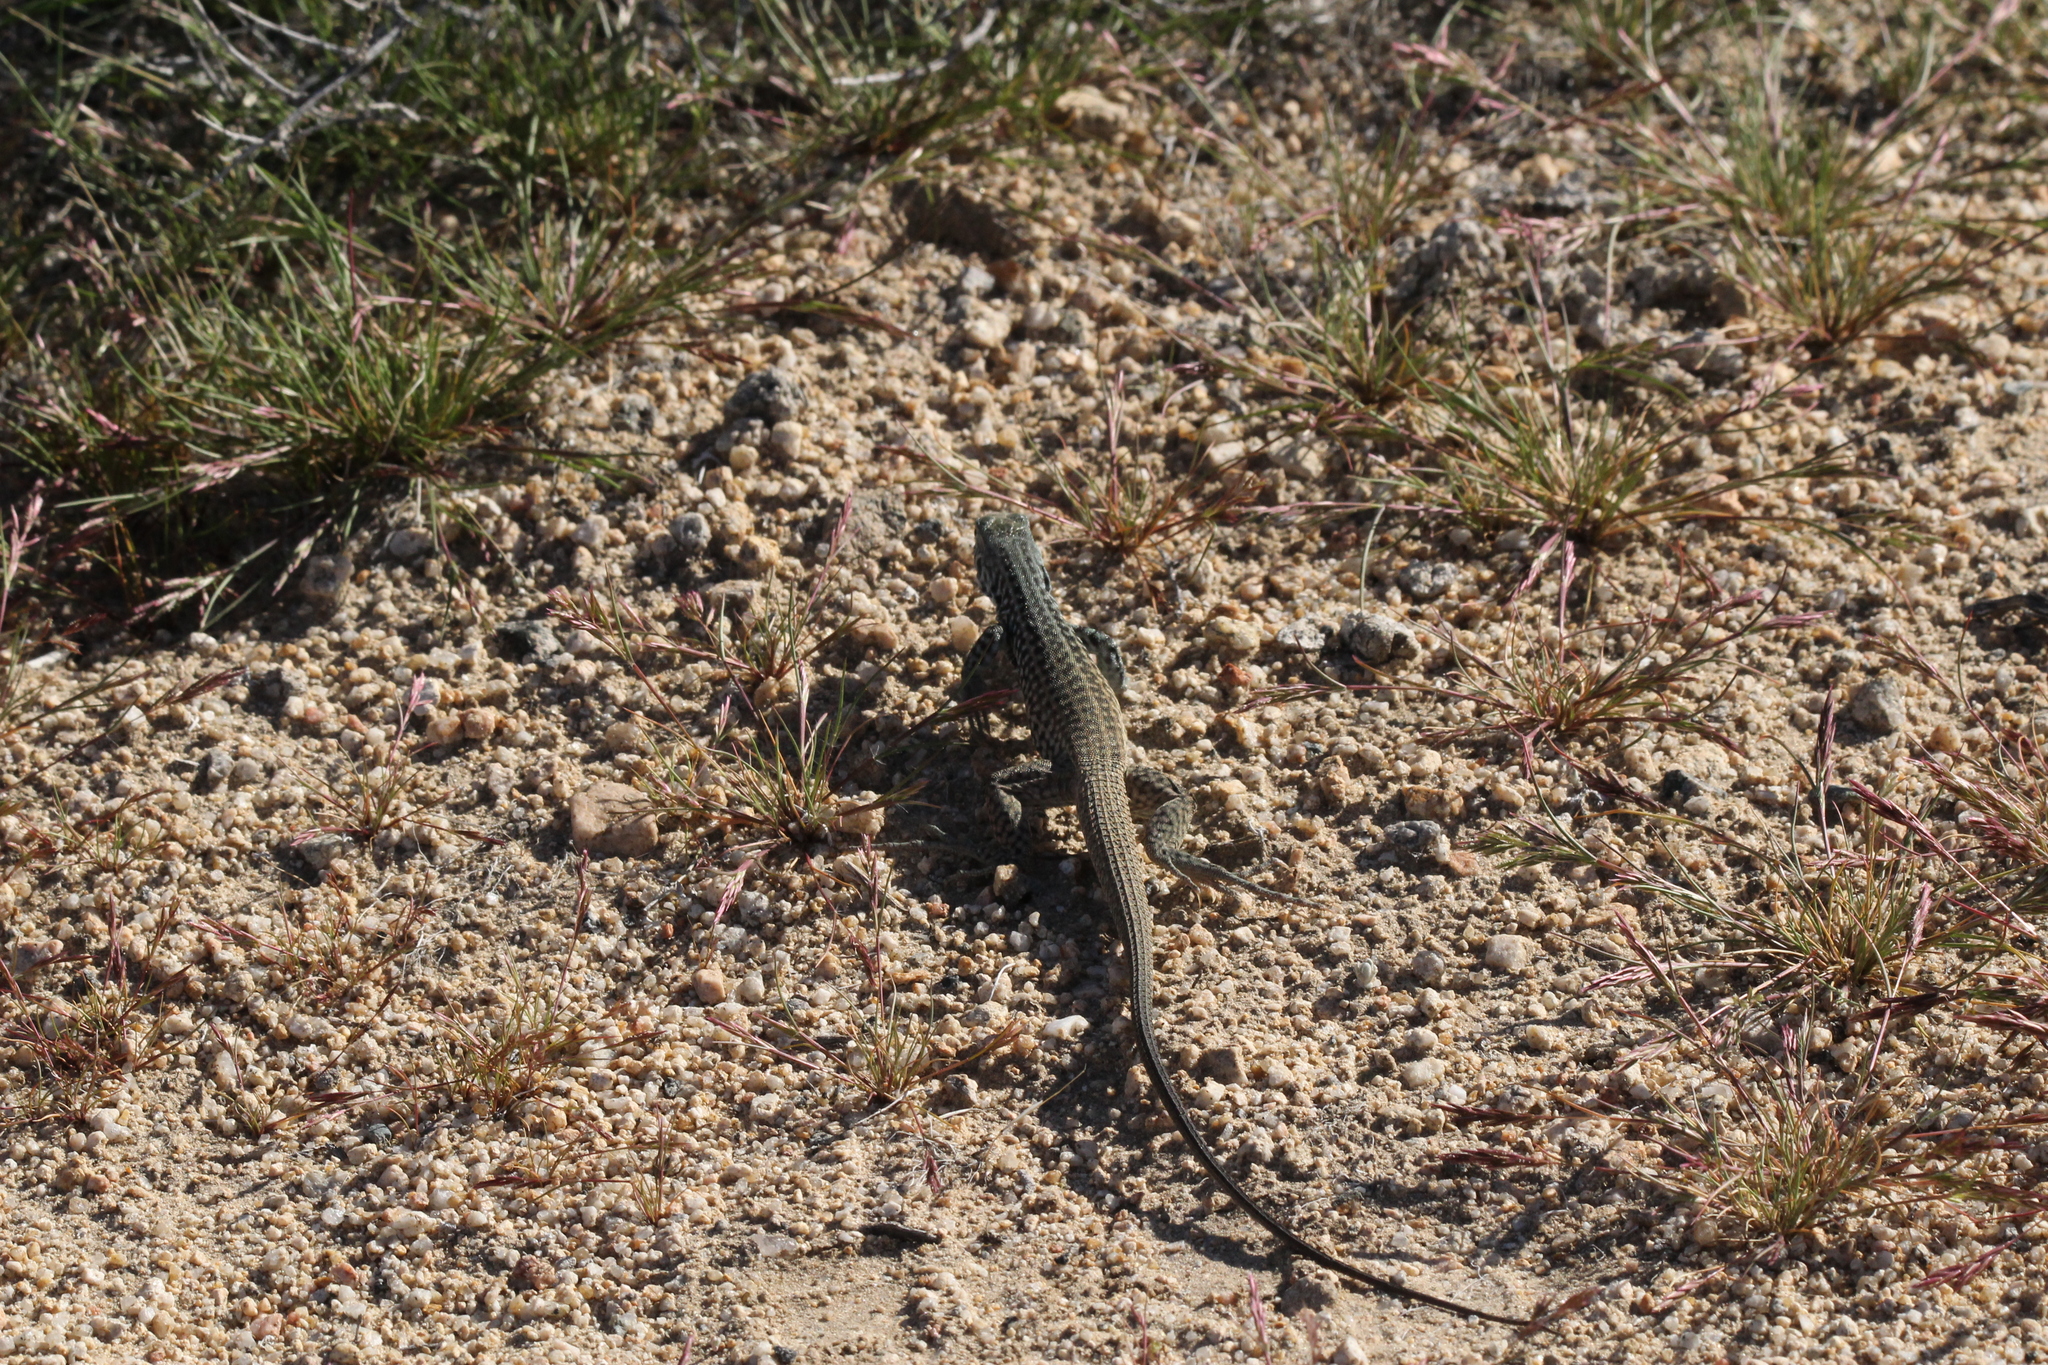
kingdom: Animalia
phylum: Chordata
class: Squamata
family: Teiidae
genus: Aspidoscelis
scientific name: Aspidoscelis tigris
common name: Tiger whiptail
